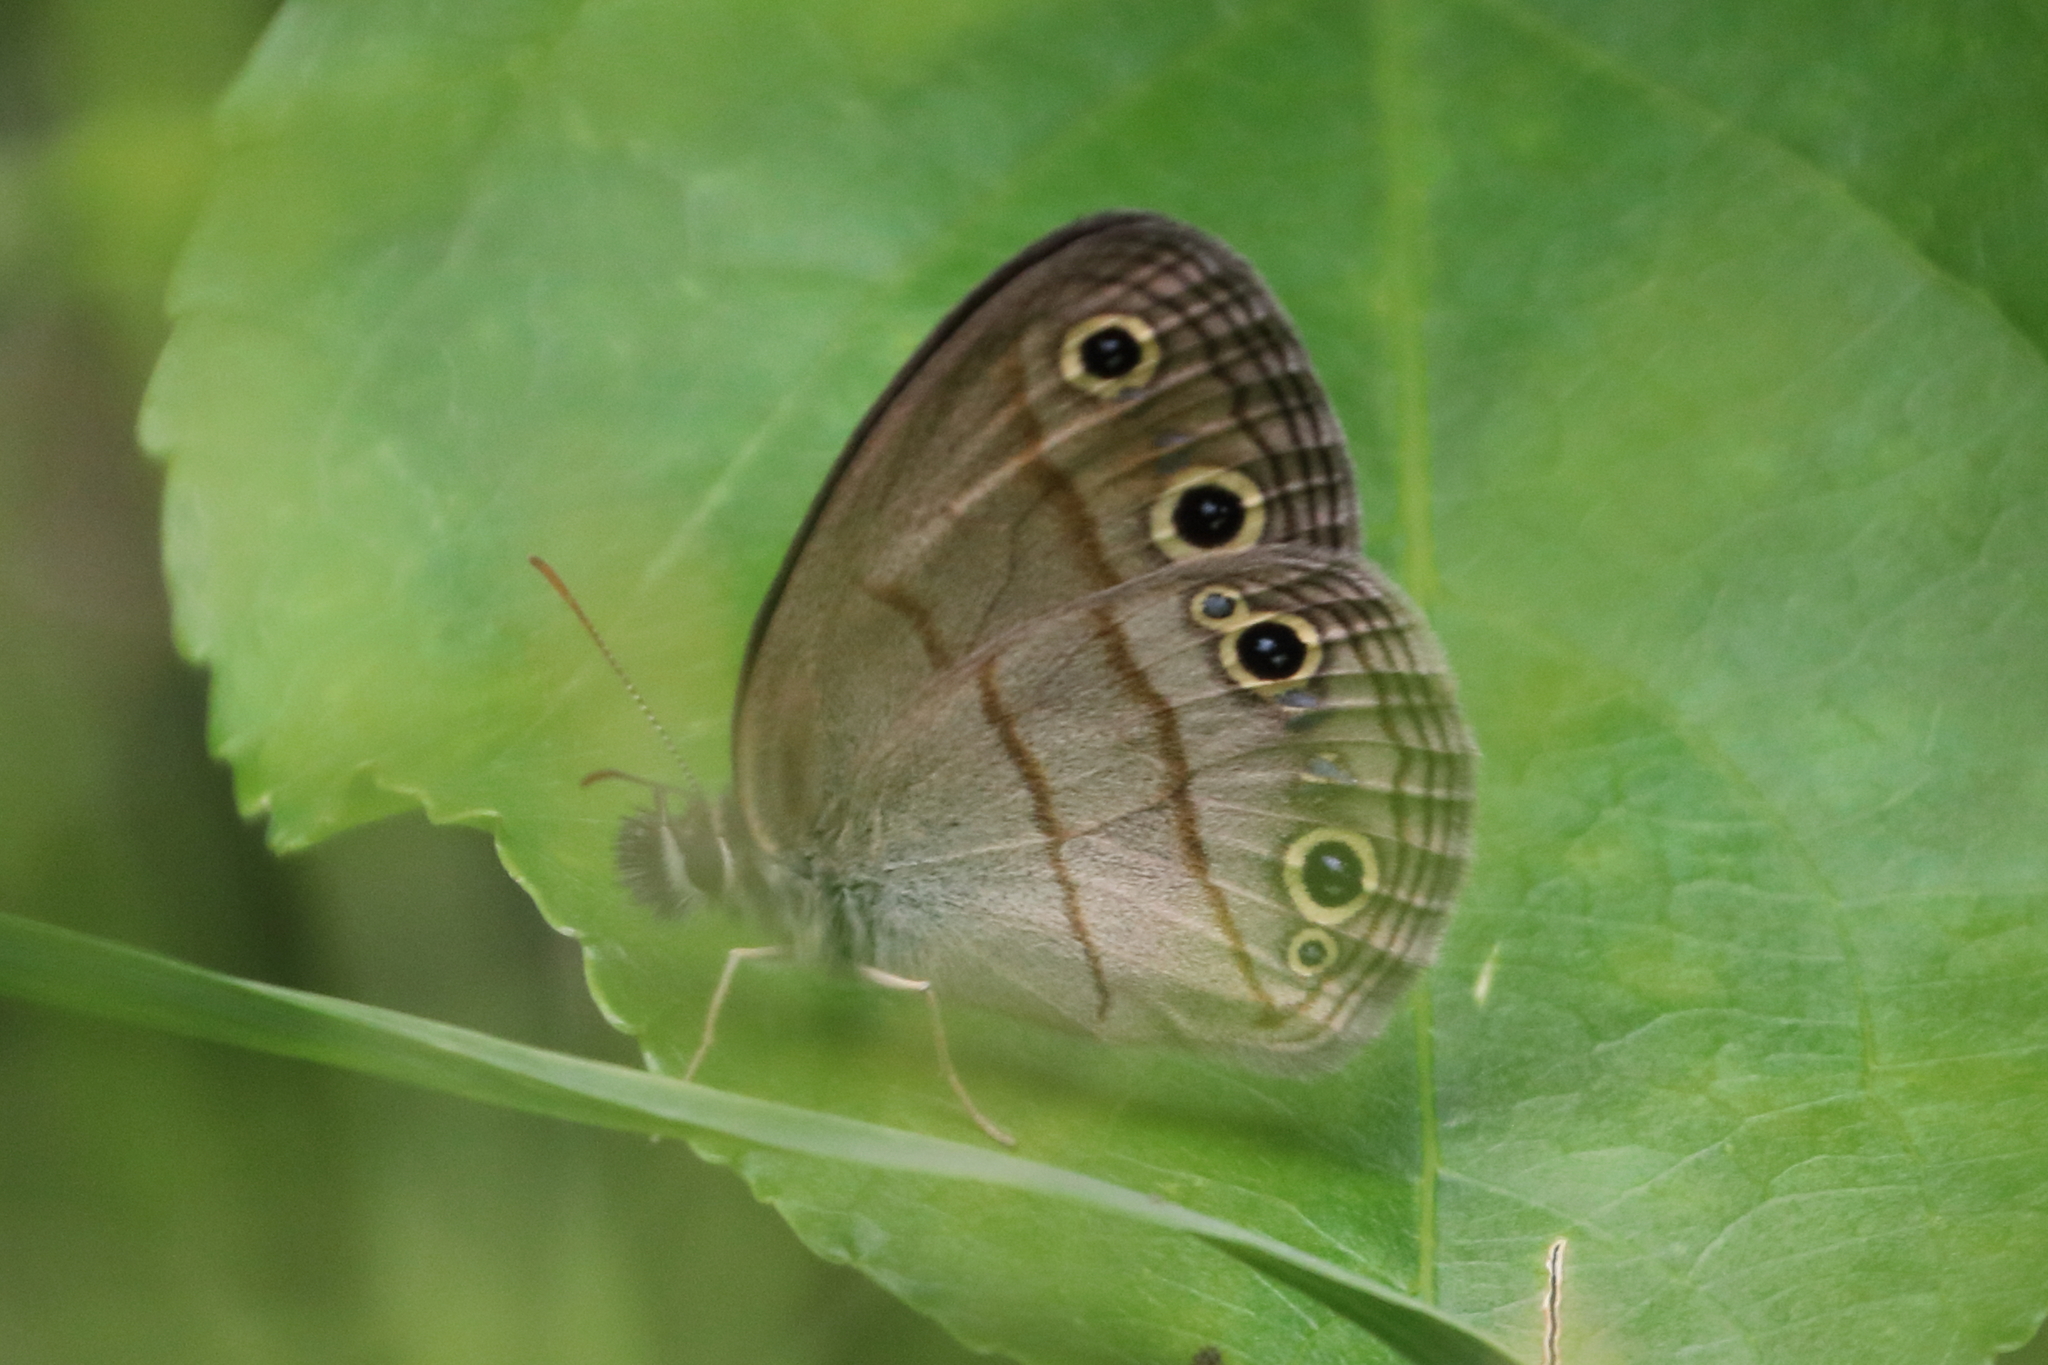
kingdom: Animalia
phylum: Arthropoda
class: Insecta
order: Lepidoptera
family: Nymphalidae
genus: Euptychia
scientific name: Euptychia cymela
